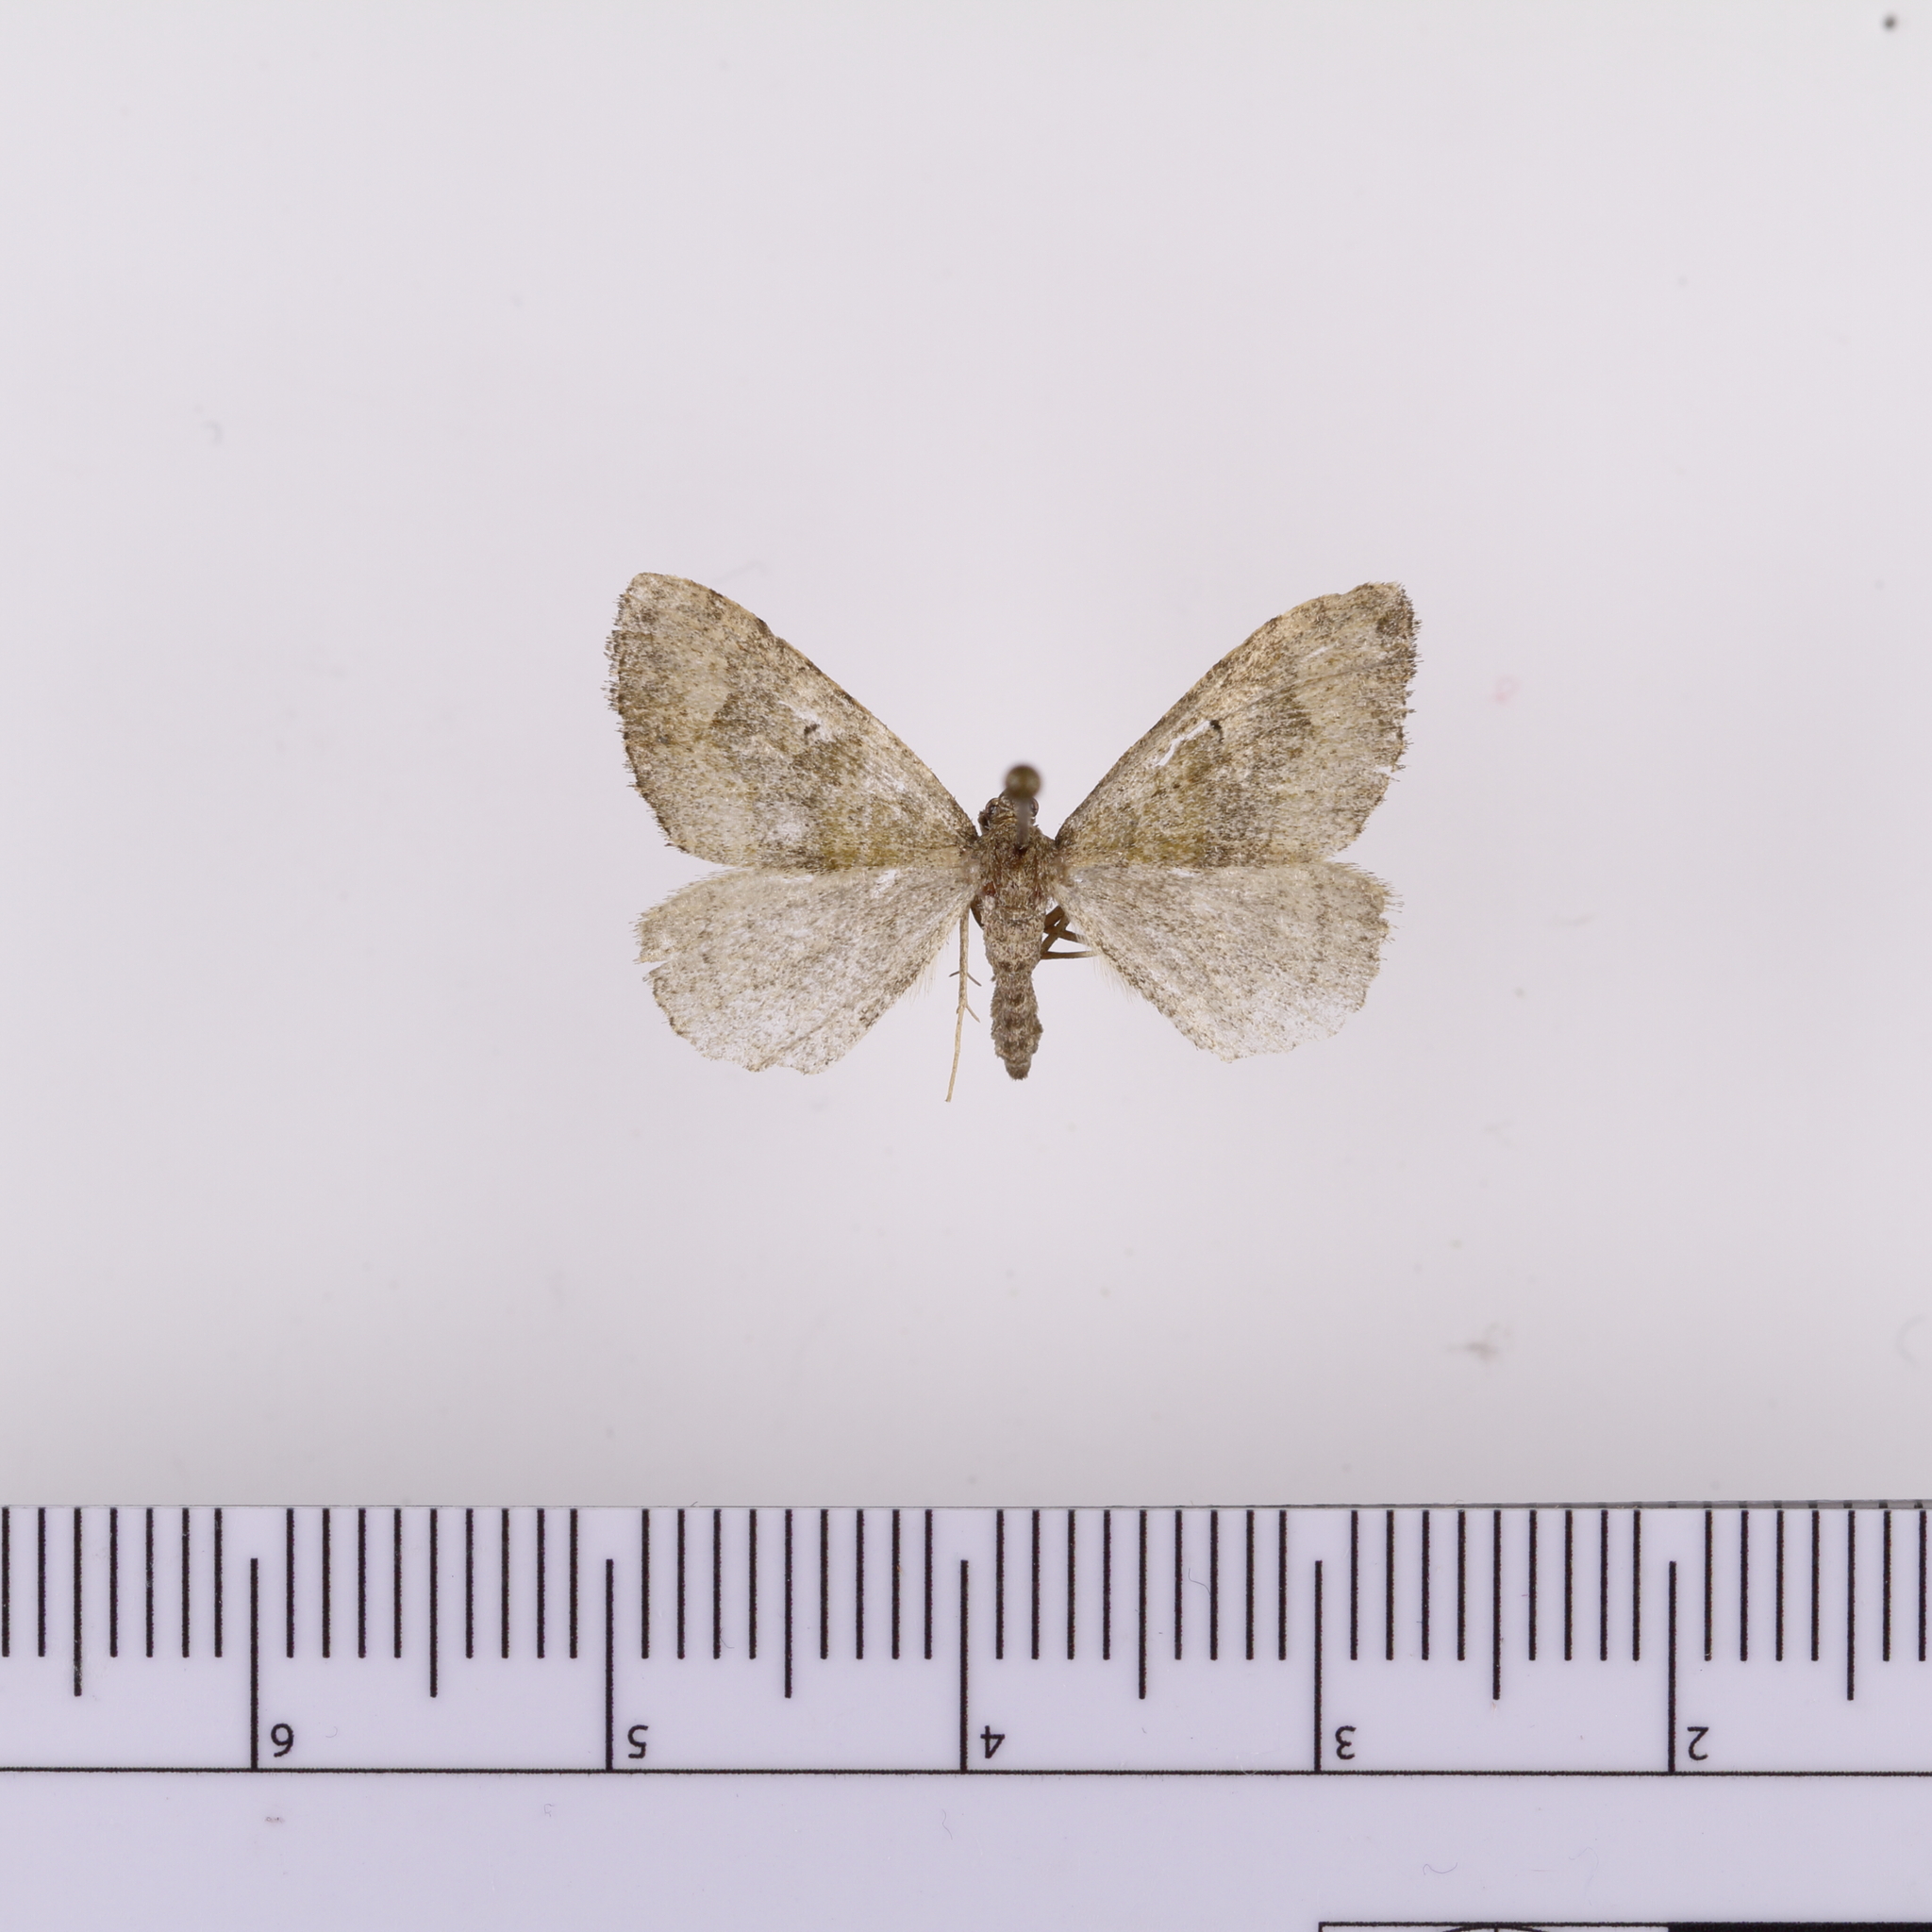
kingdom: Animalia
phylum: Arthropoda
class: Insecta
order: Lepidoptera
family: Geometridae
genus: Epyaxa
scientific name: Epyaxa rosearia
